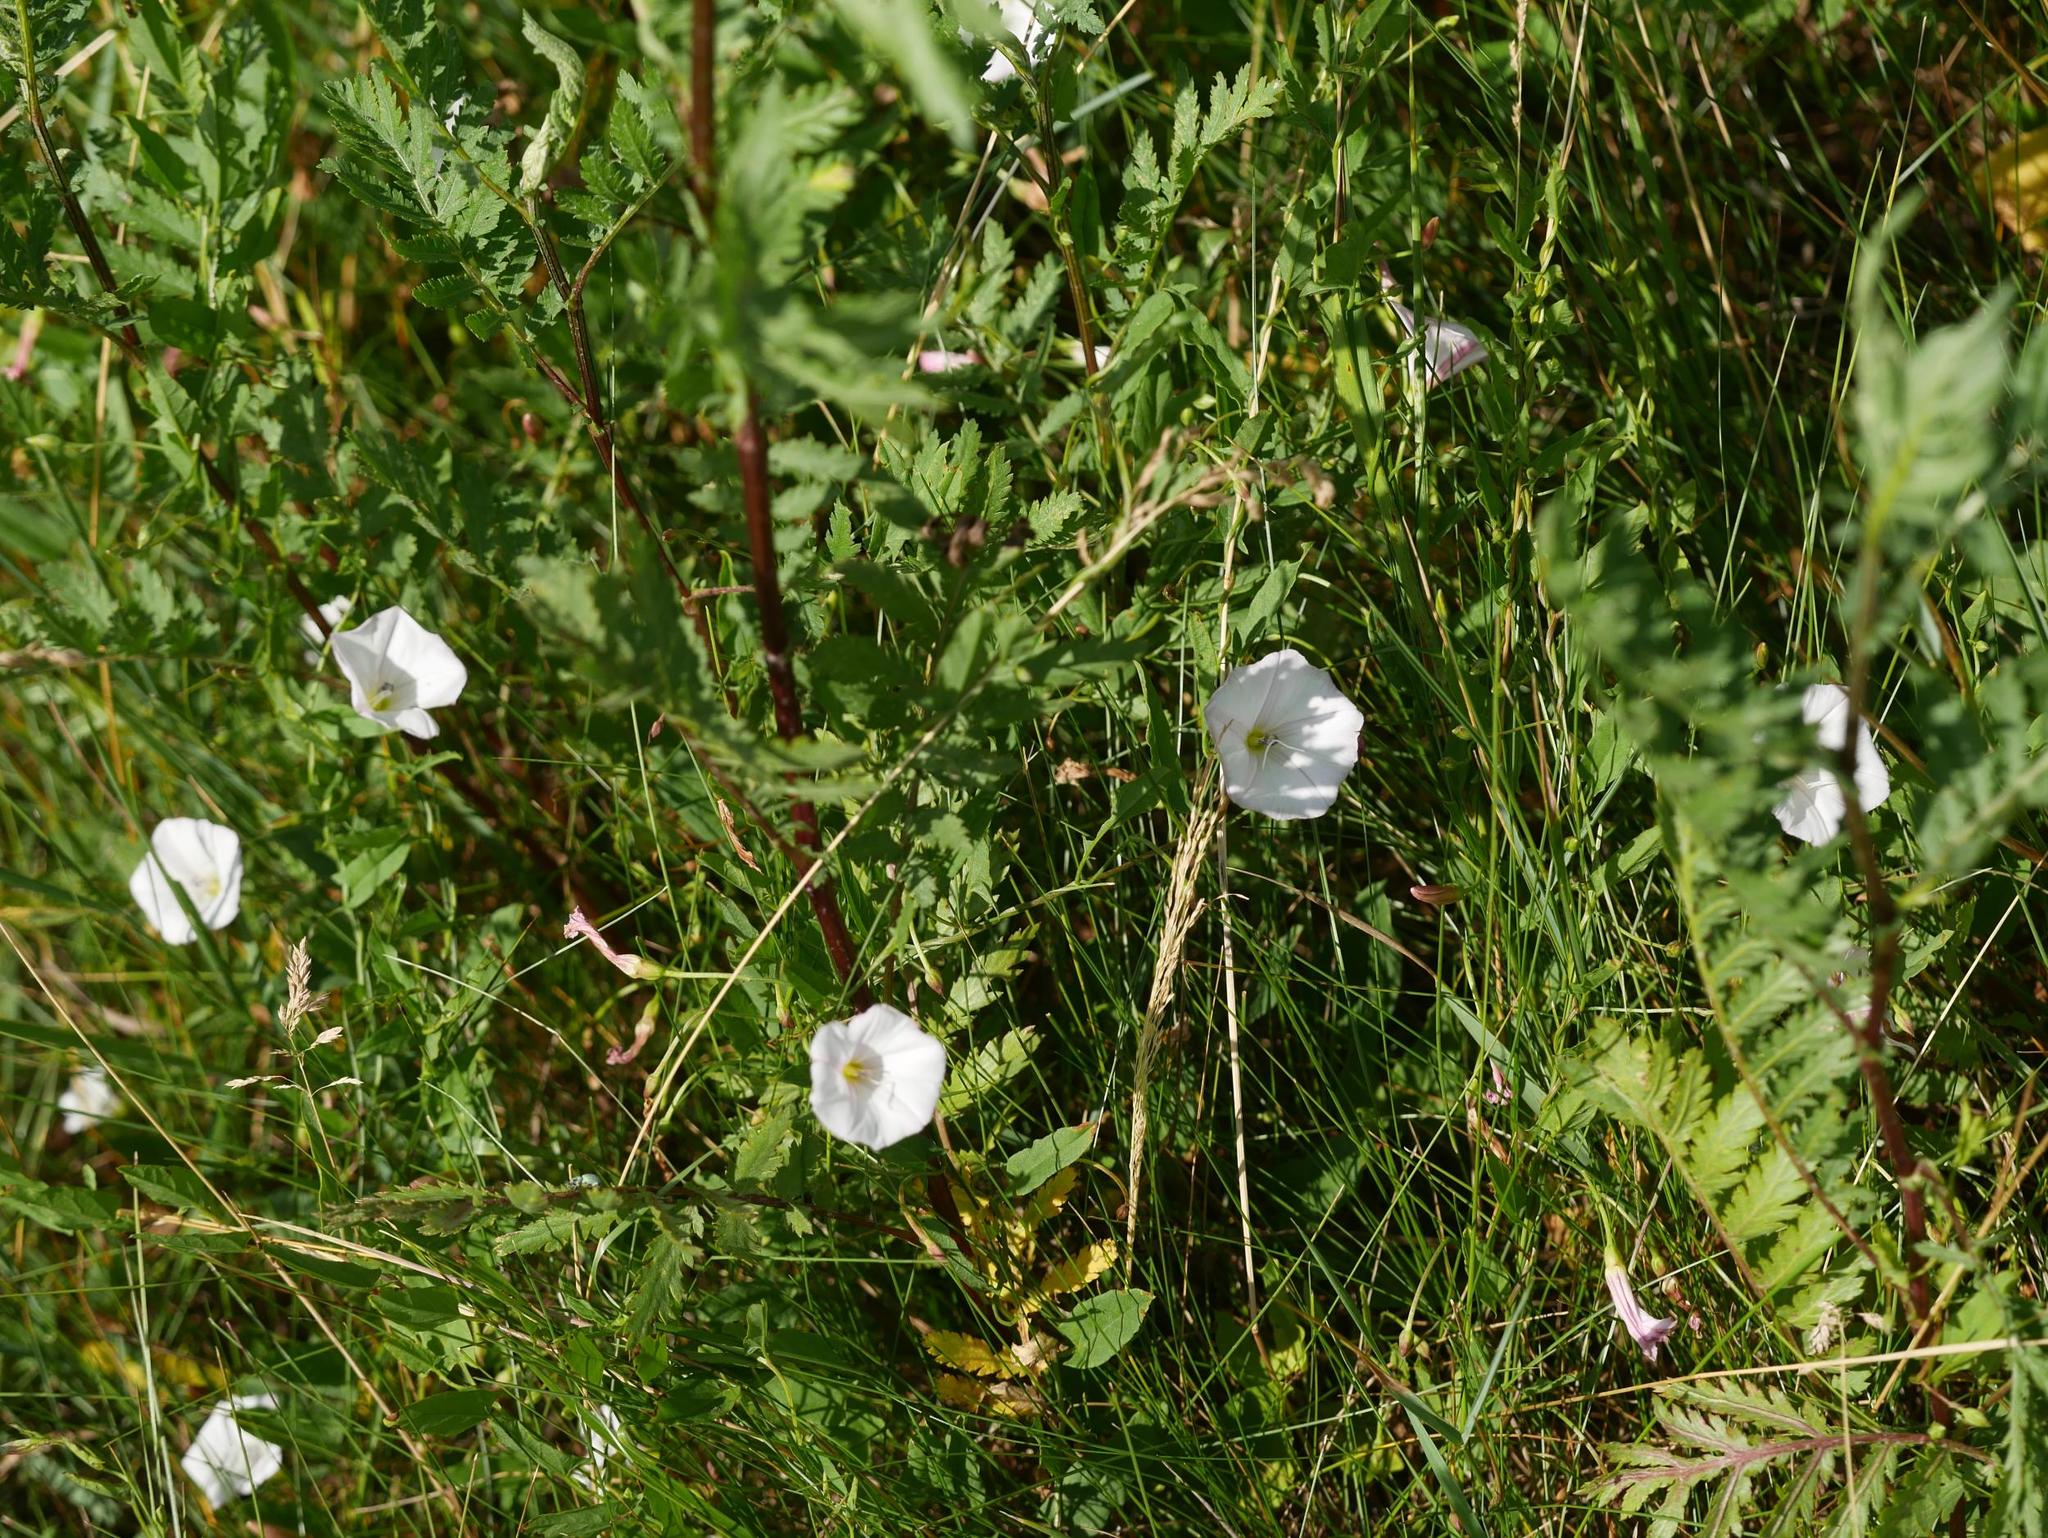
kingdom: Plantae
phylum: Tracheophyta
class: Magnoliopsida
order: Solanales
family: Convolvulaceae
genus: Convolvulus
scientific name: Convolvulus arvensis
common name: Field bindweed
